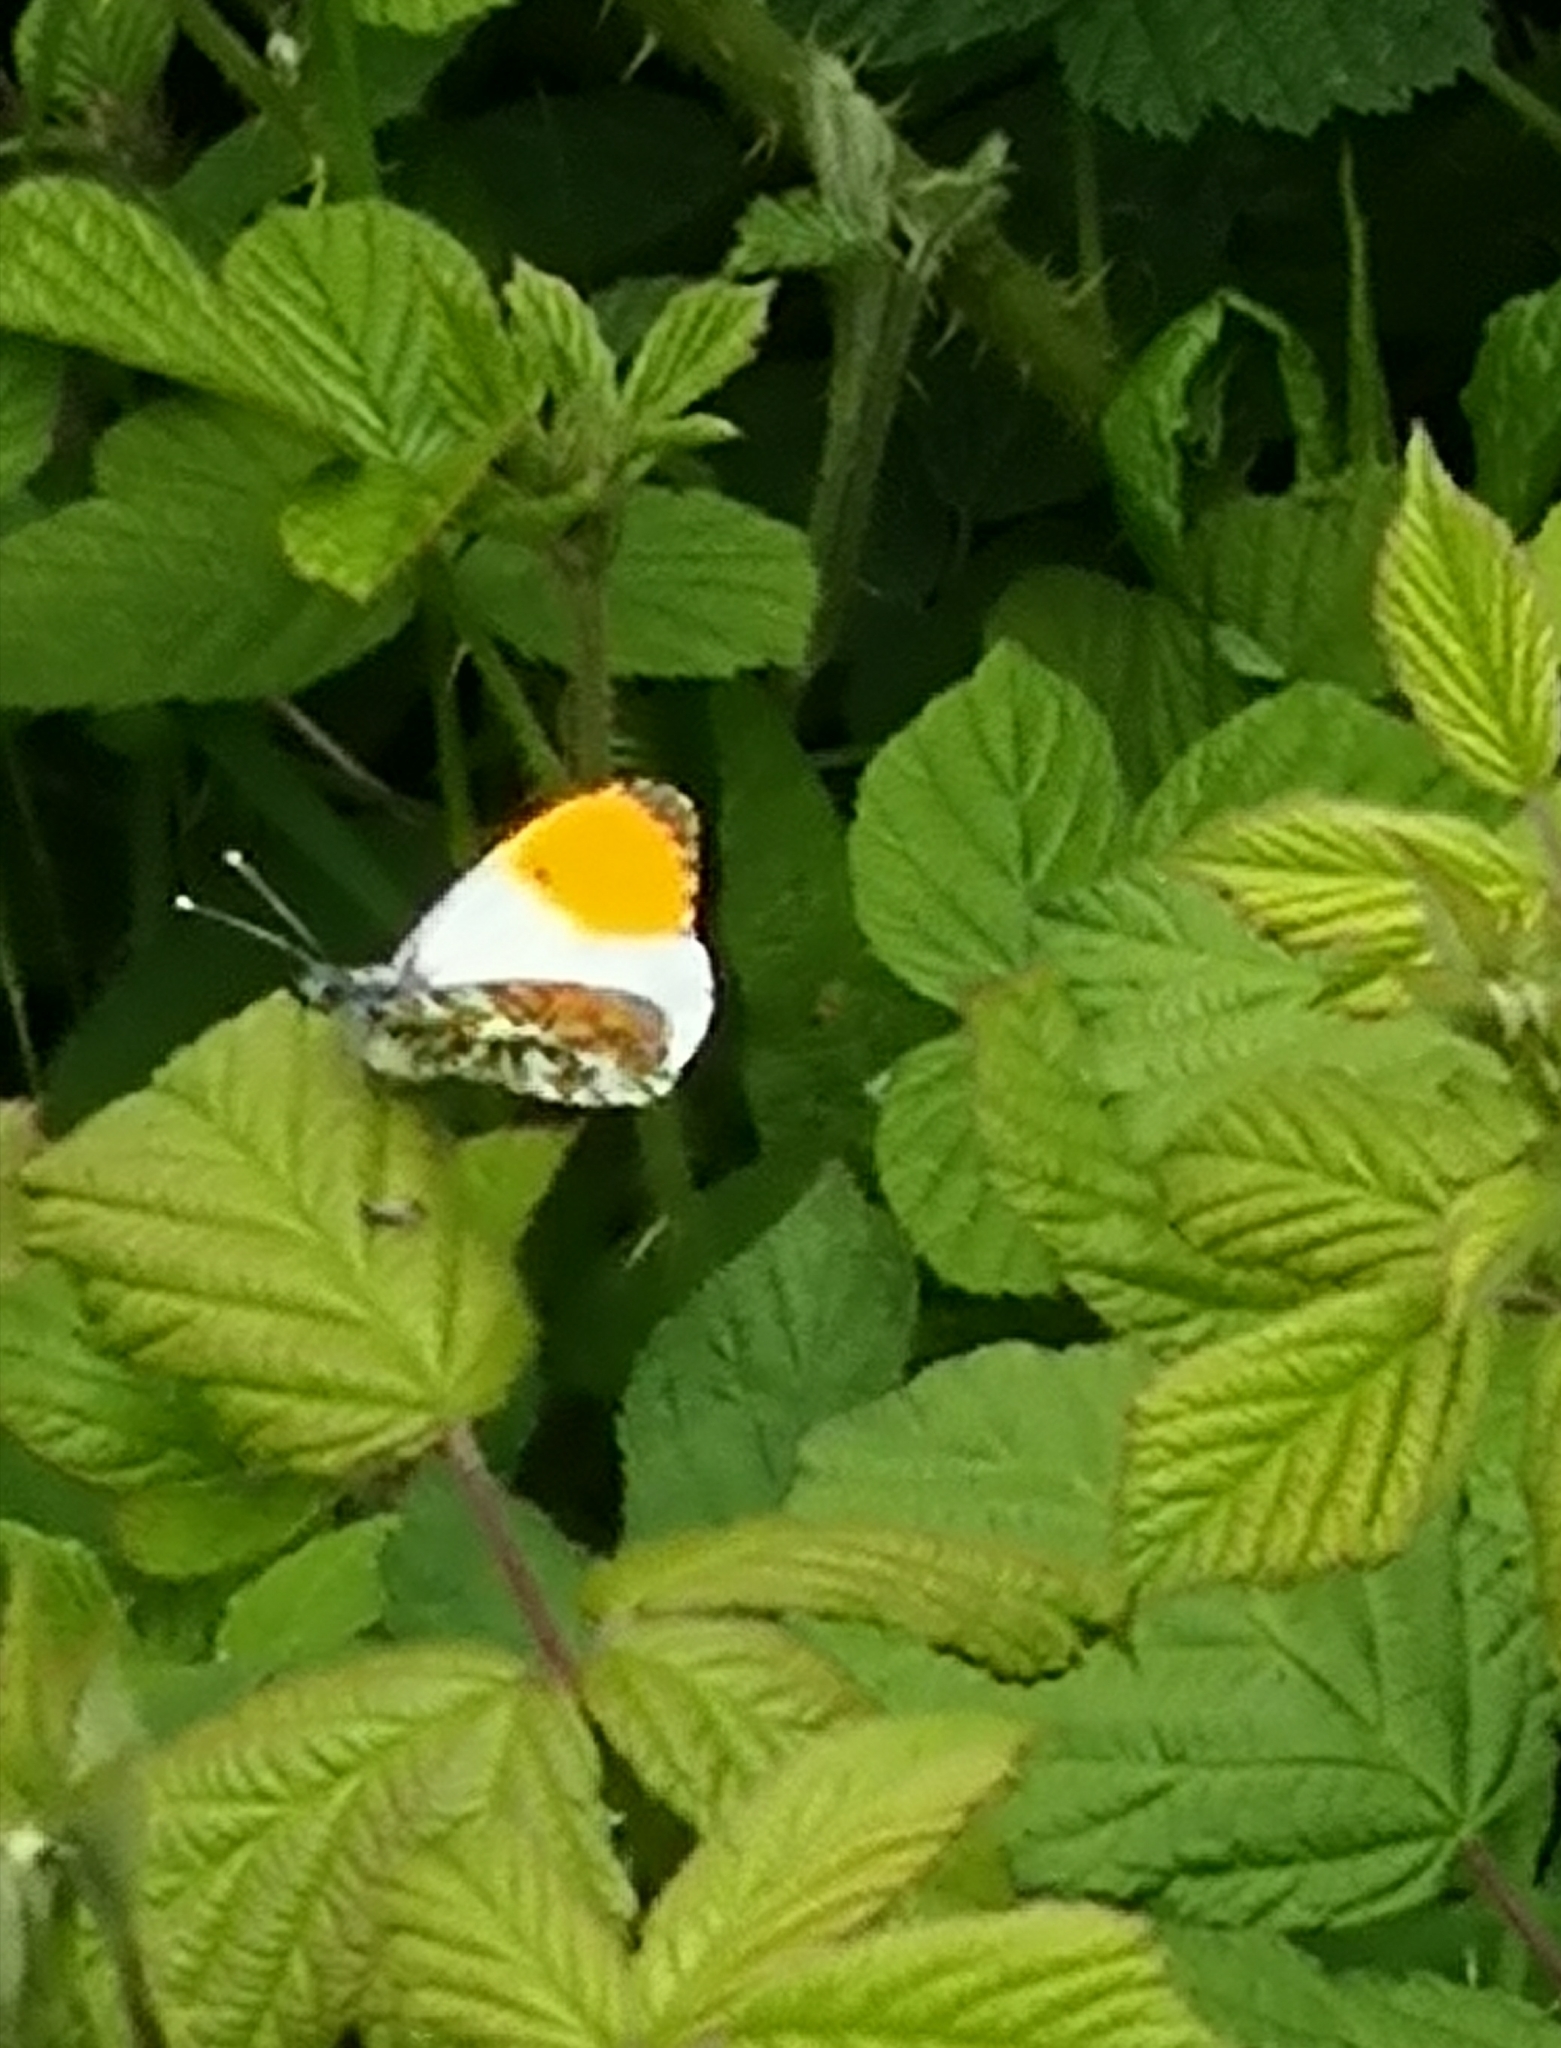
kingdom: Animalia
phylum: Arthropoda
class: Insecta
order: Lepidoptera
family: Pieridae
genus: Anthocharis
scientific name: Anthocharis cardamines
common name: Orange-tip
